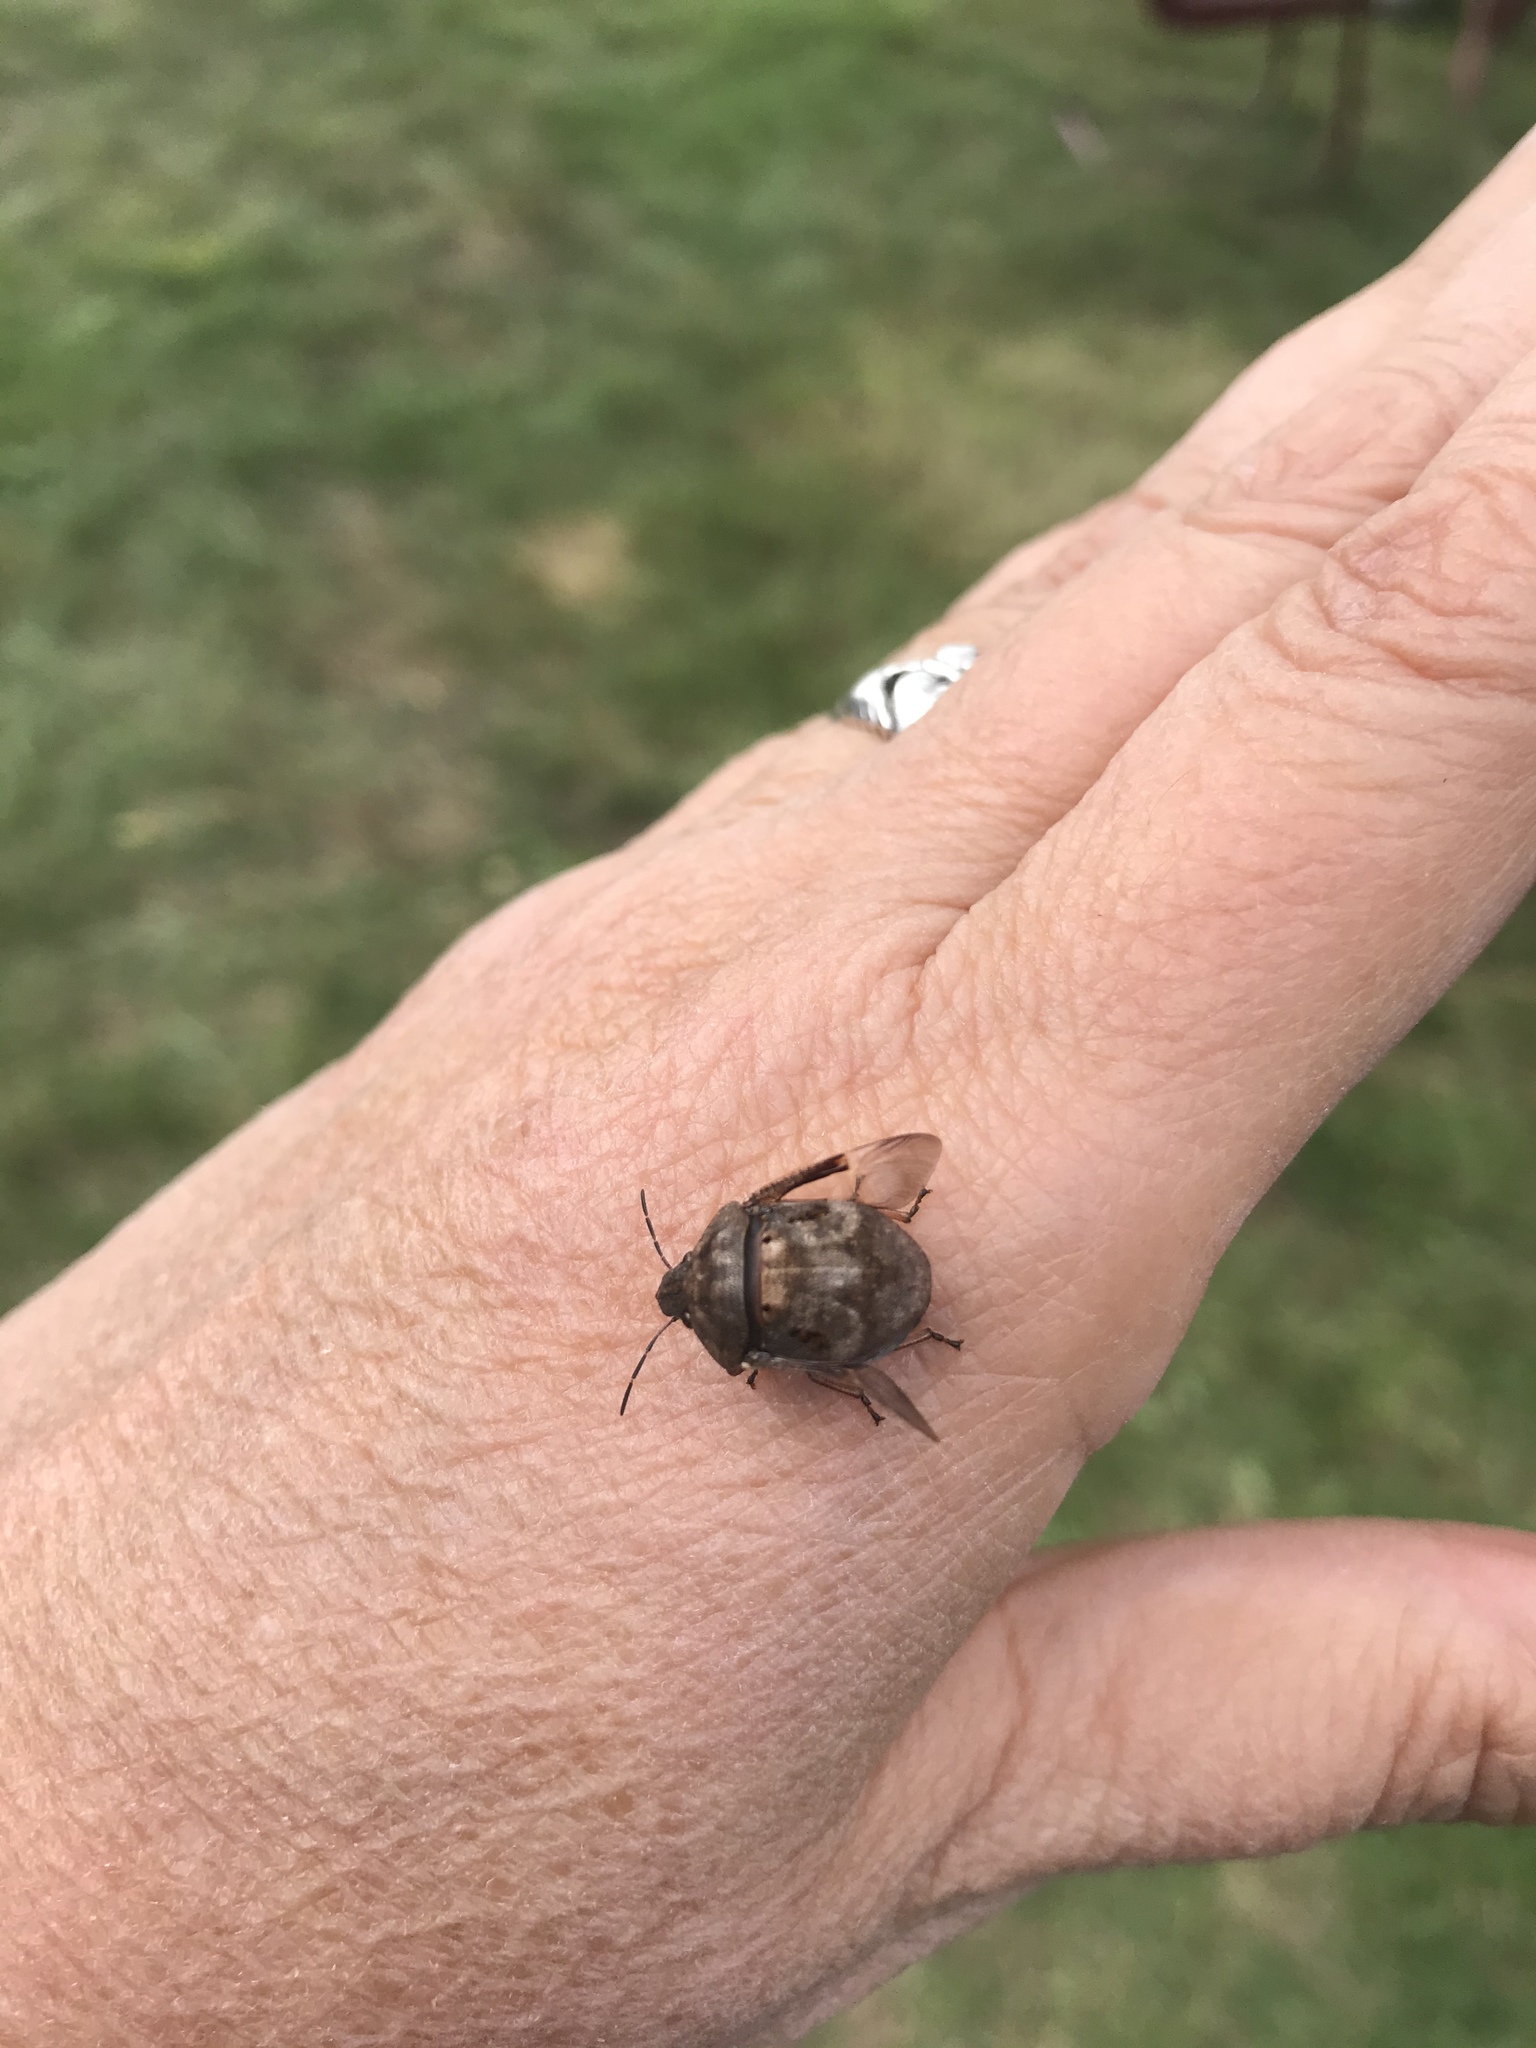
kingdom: Animalia
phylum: Arthropoda
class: Insecta
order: Hemiptera
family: Scutelleridae
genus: Tetyra
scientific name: Tetyra bipunctata
